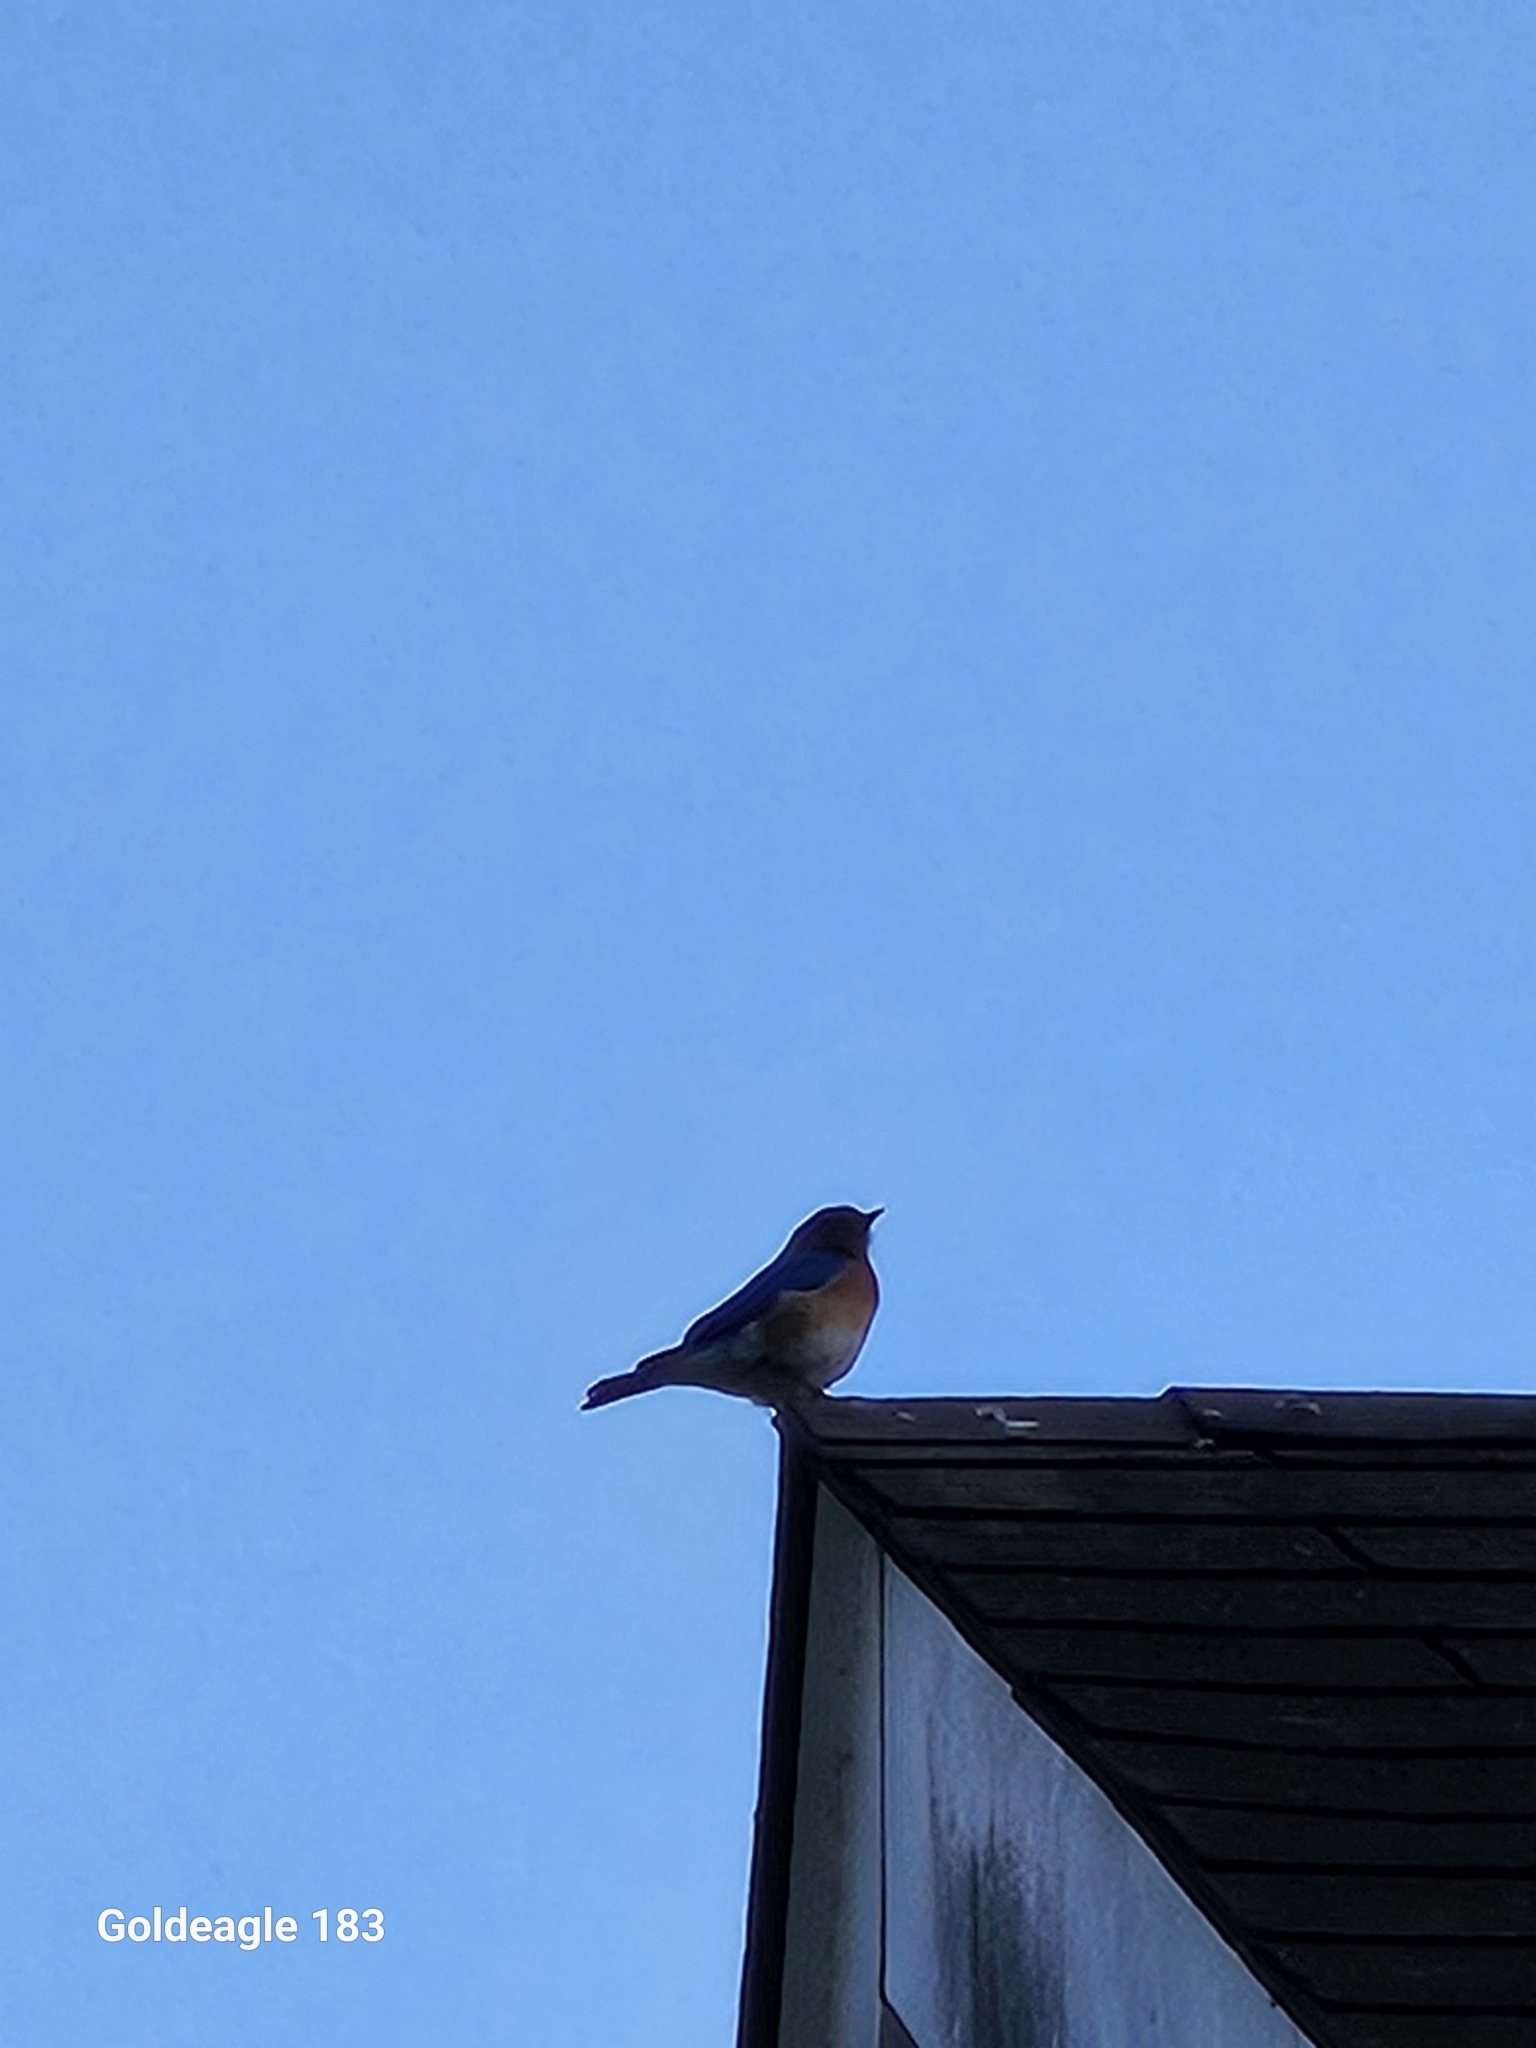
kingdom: Animalia
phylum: Chordata
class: Aves
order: Passeriformes
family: Turdidae
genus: Sialia
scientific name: Sialia sialis
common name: Eastern bluebird
